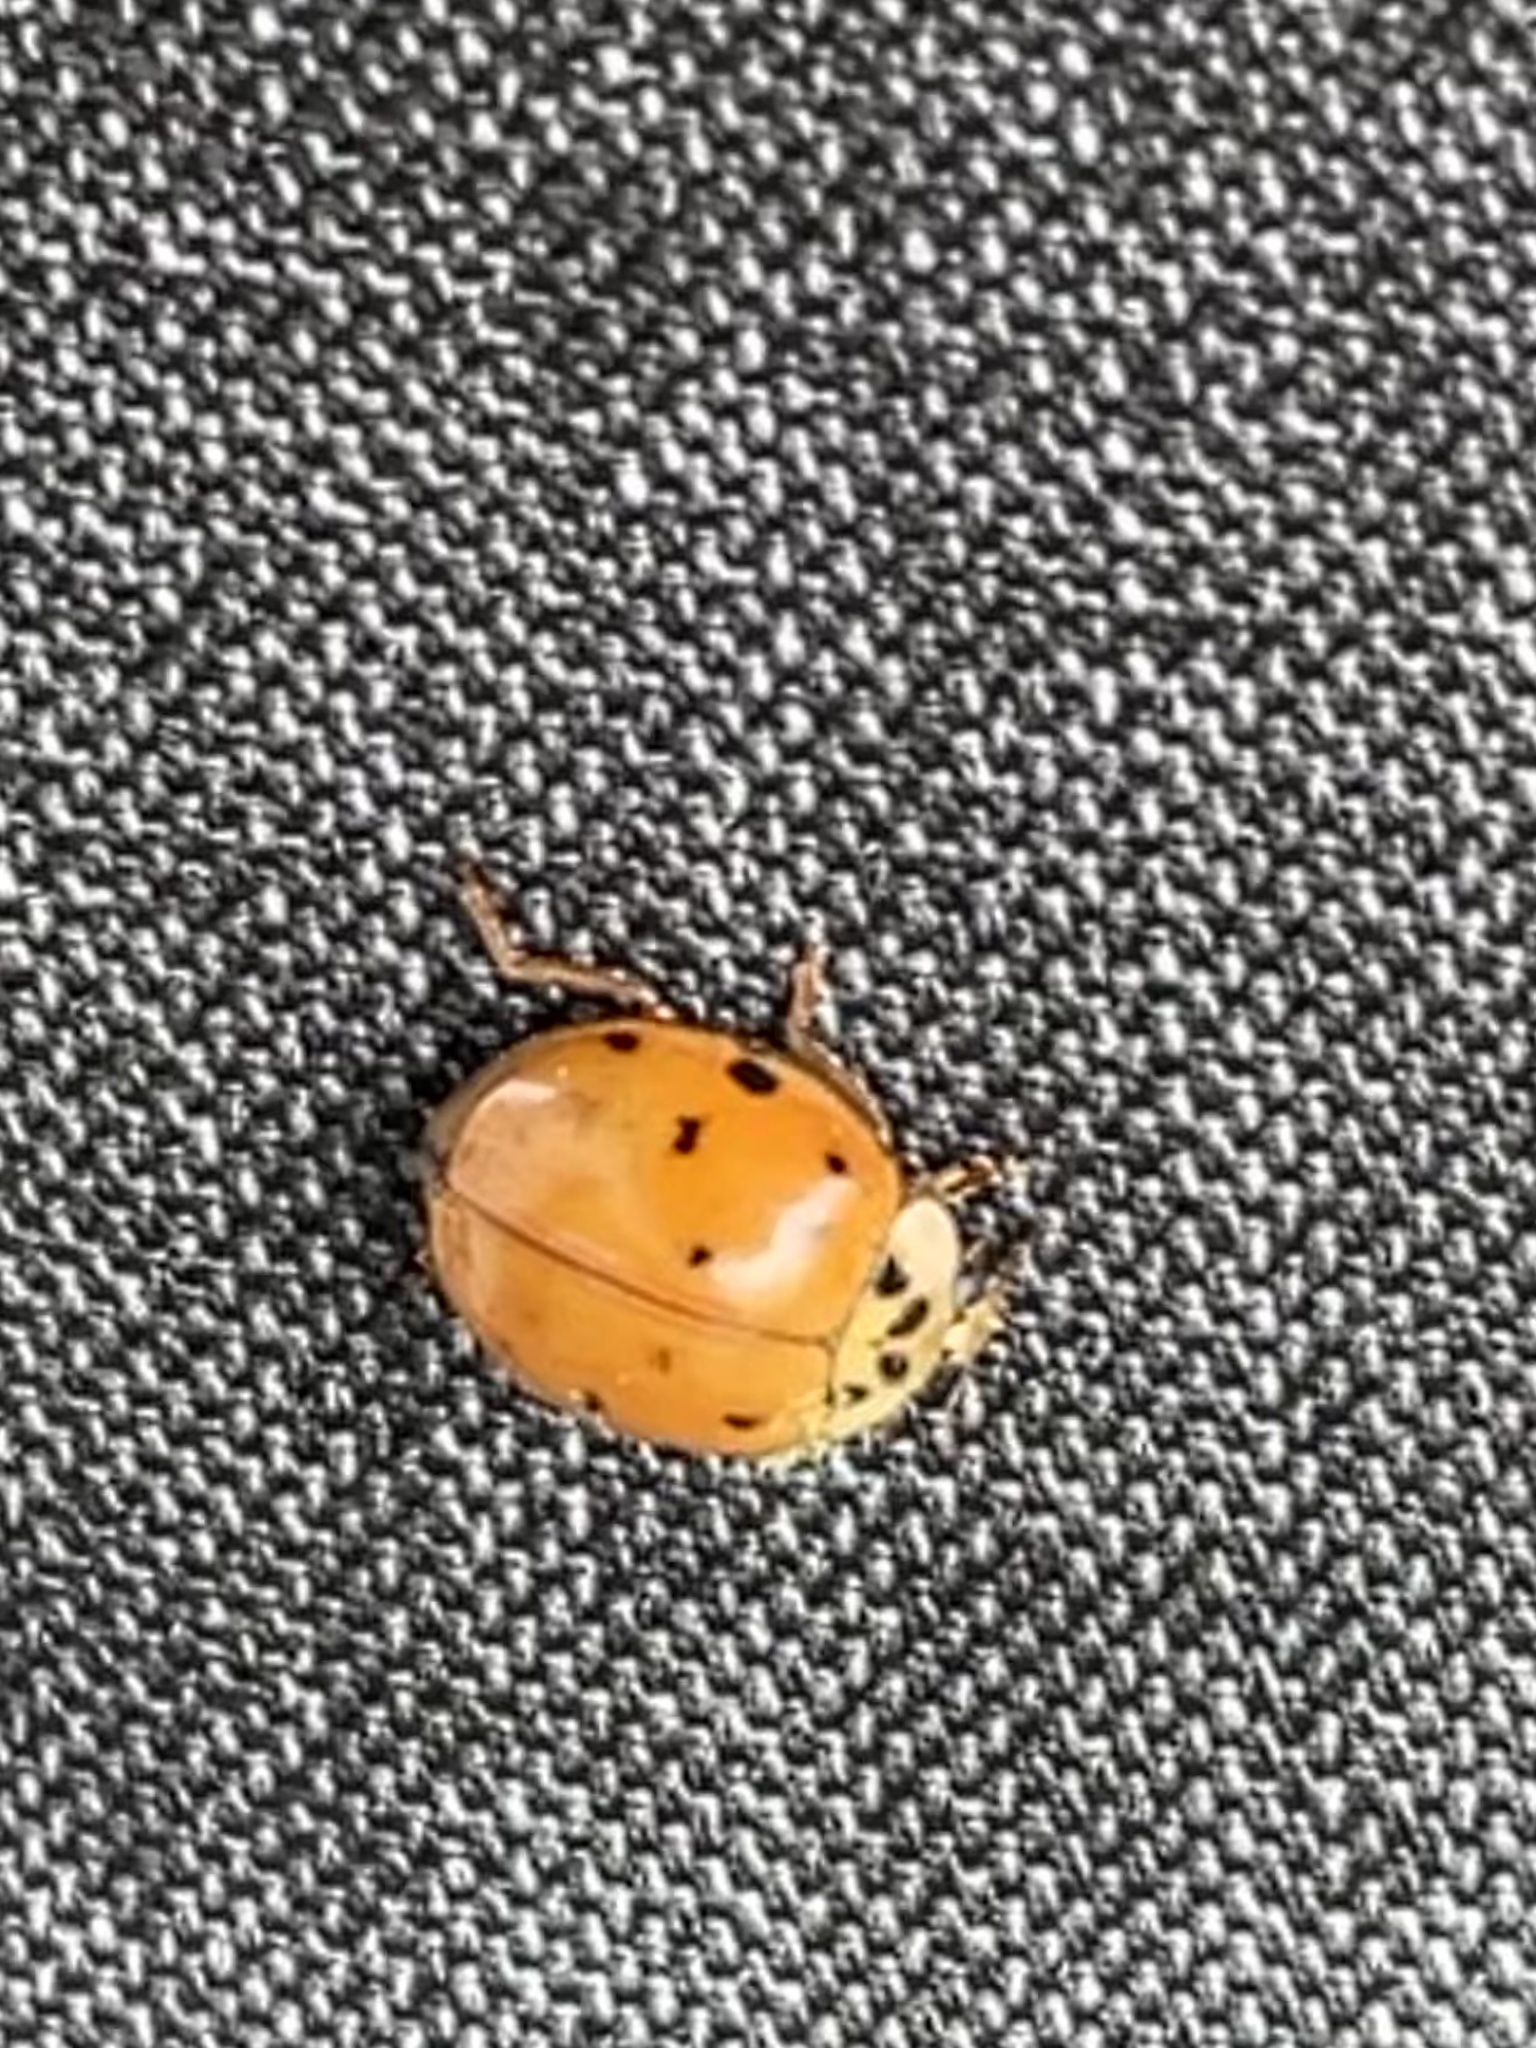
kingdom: Animalia
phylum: Arthropoda
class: Insecta
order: Coleoptera
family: Coccinellidae
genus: Harmonia
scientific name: Harmonia axyridis
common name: Harlequin ladybird
